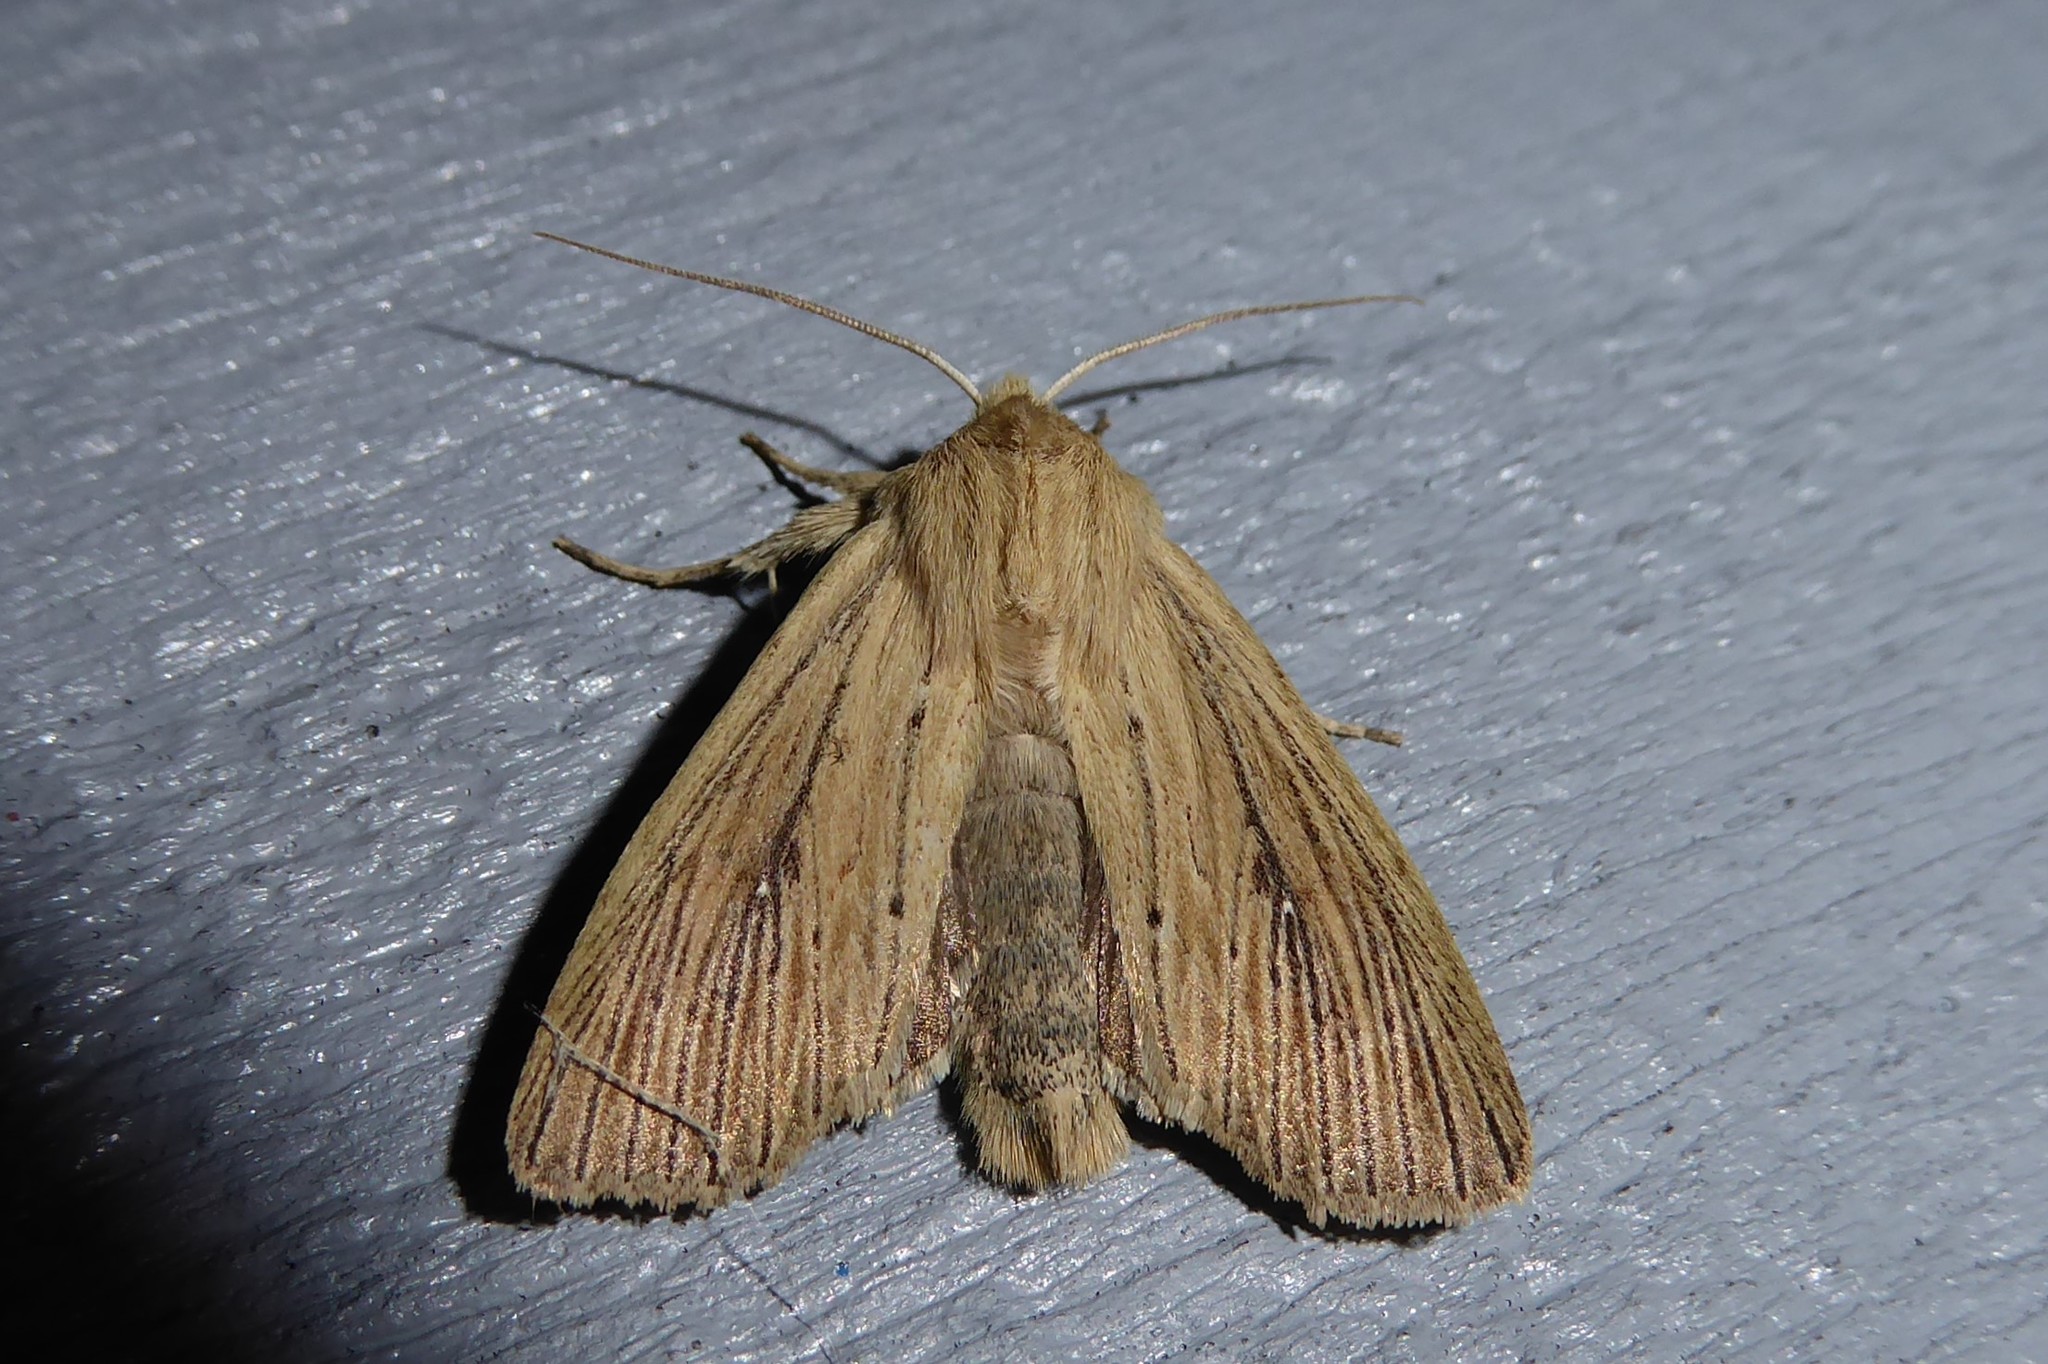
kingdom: Animalia
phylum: Arthropoda
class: Insecta
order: Lepidoptera
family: Noctuidae
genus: Ichneutica
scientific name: Ichneutica arotis
